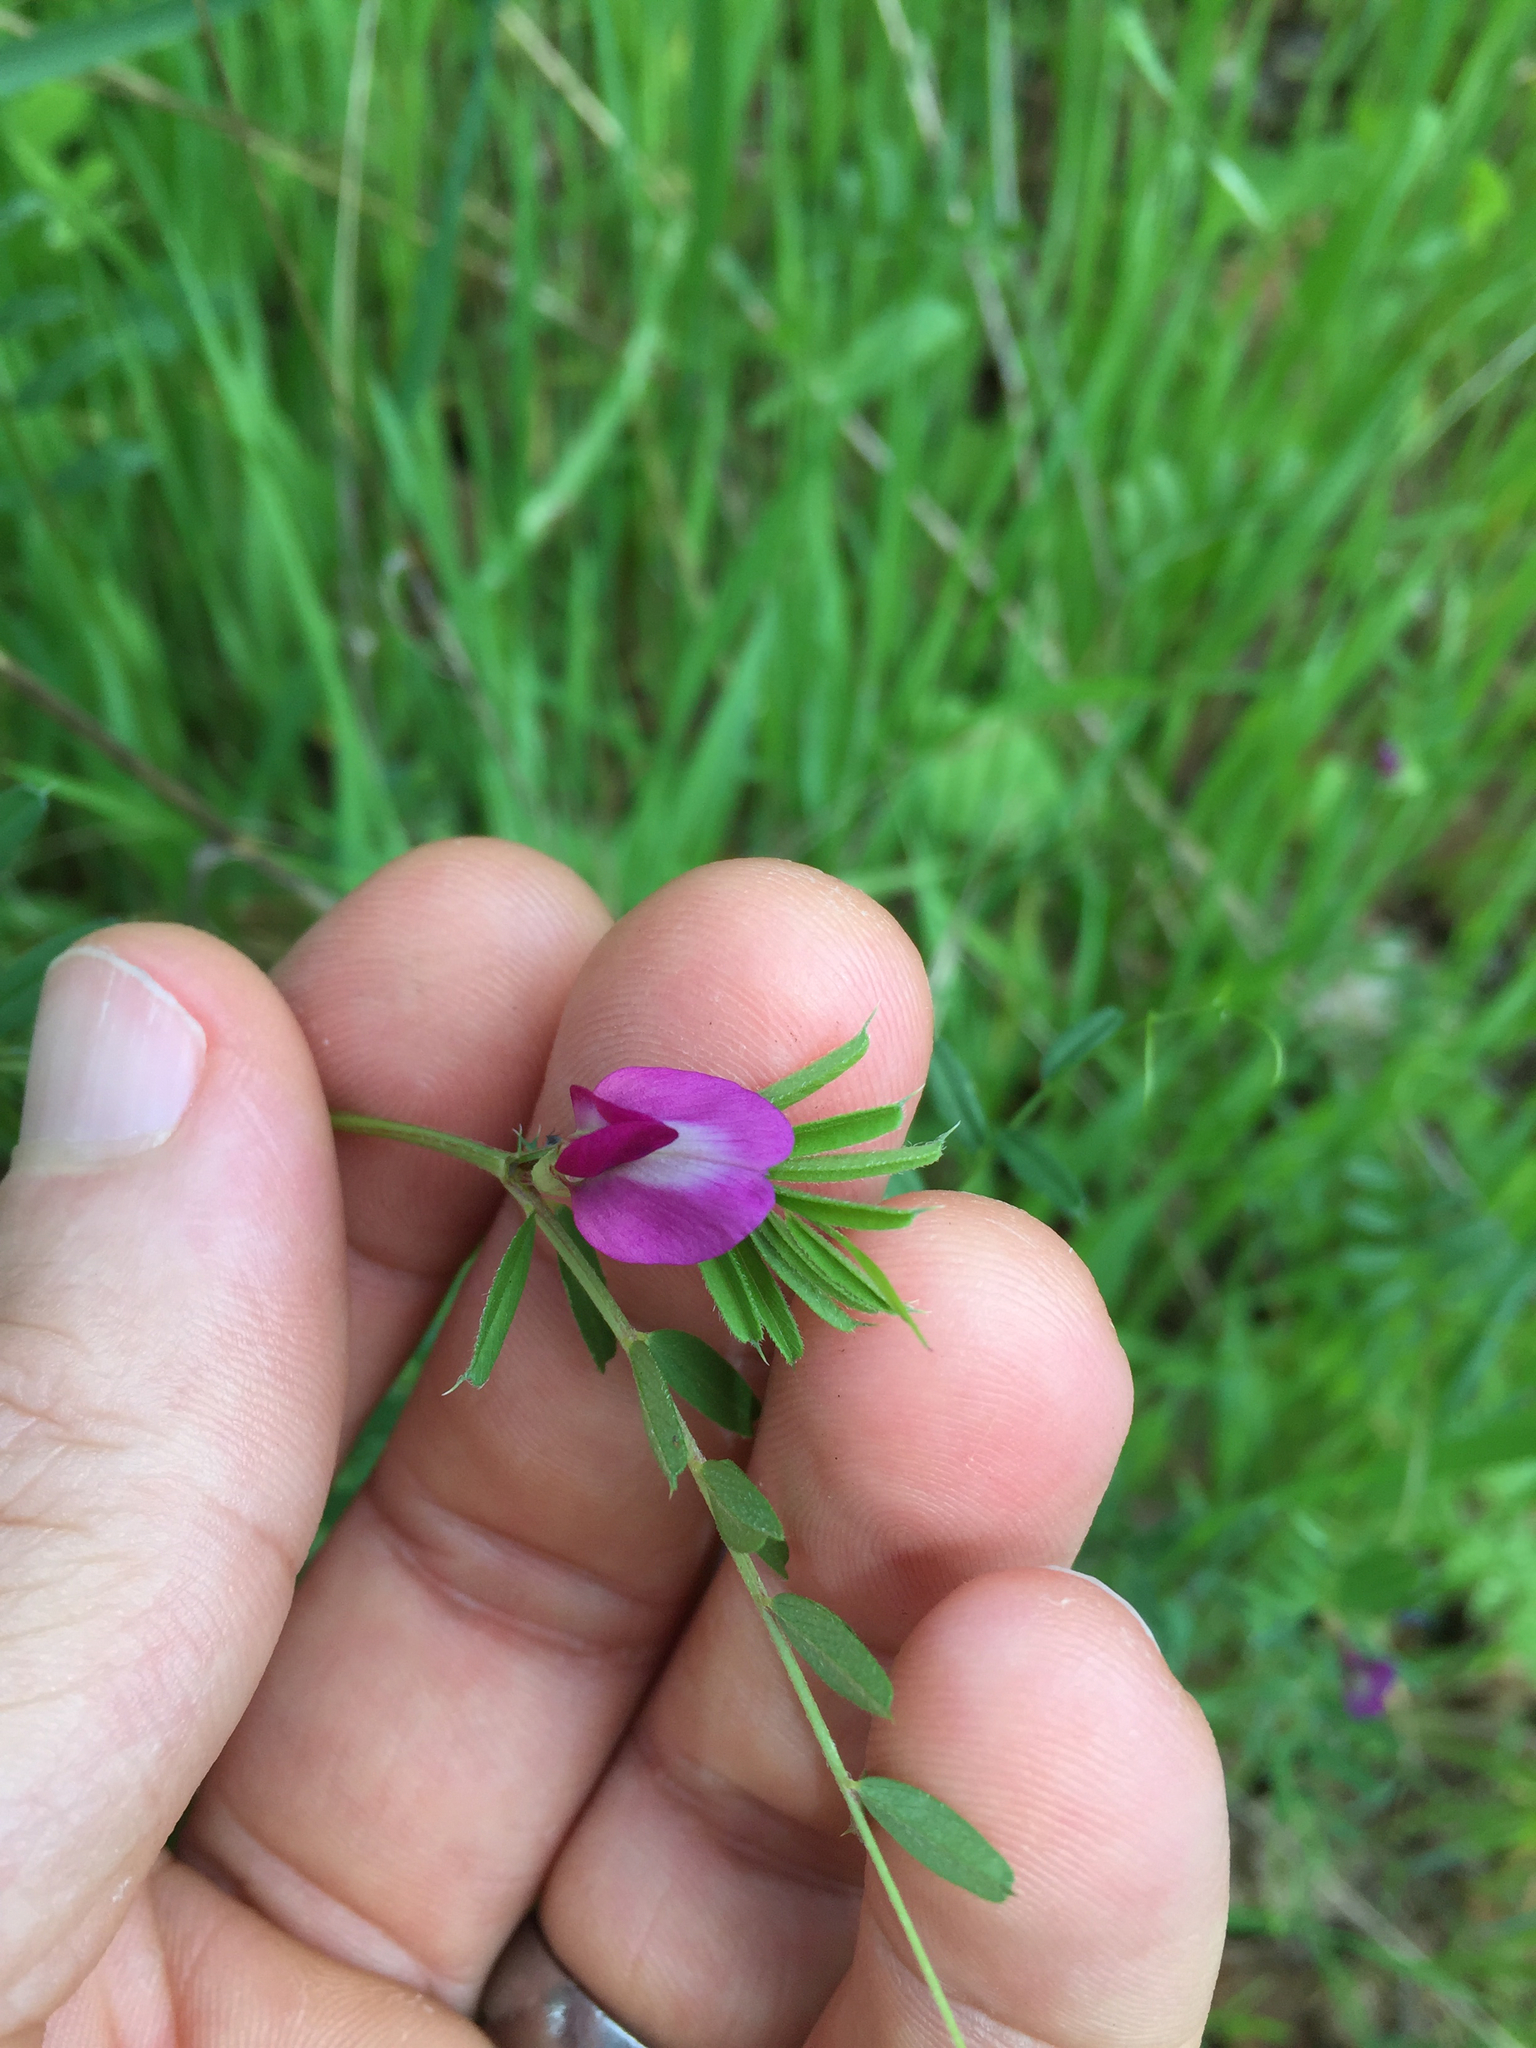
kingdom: Plantae
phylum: Tracheophyta
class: Magnoliopsida
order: Fabales
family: Fabaceae
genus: Vicia
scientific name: Vicia sativa
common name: Garden vetch
